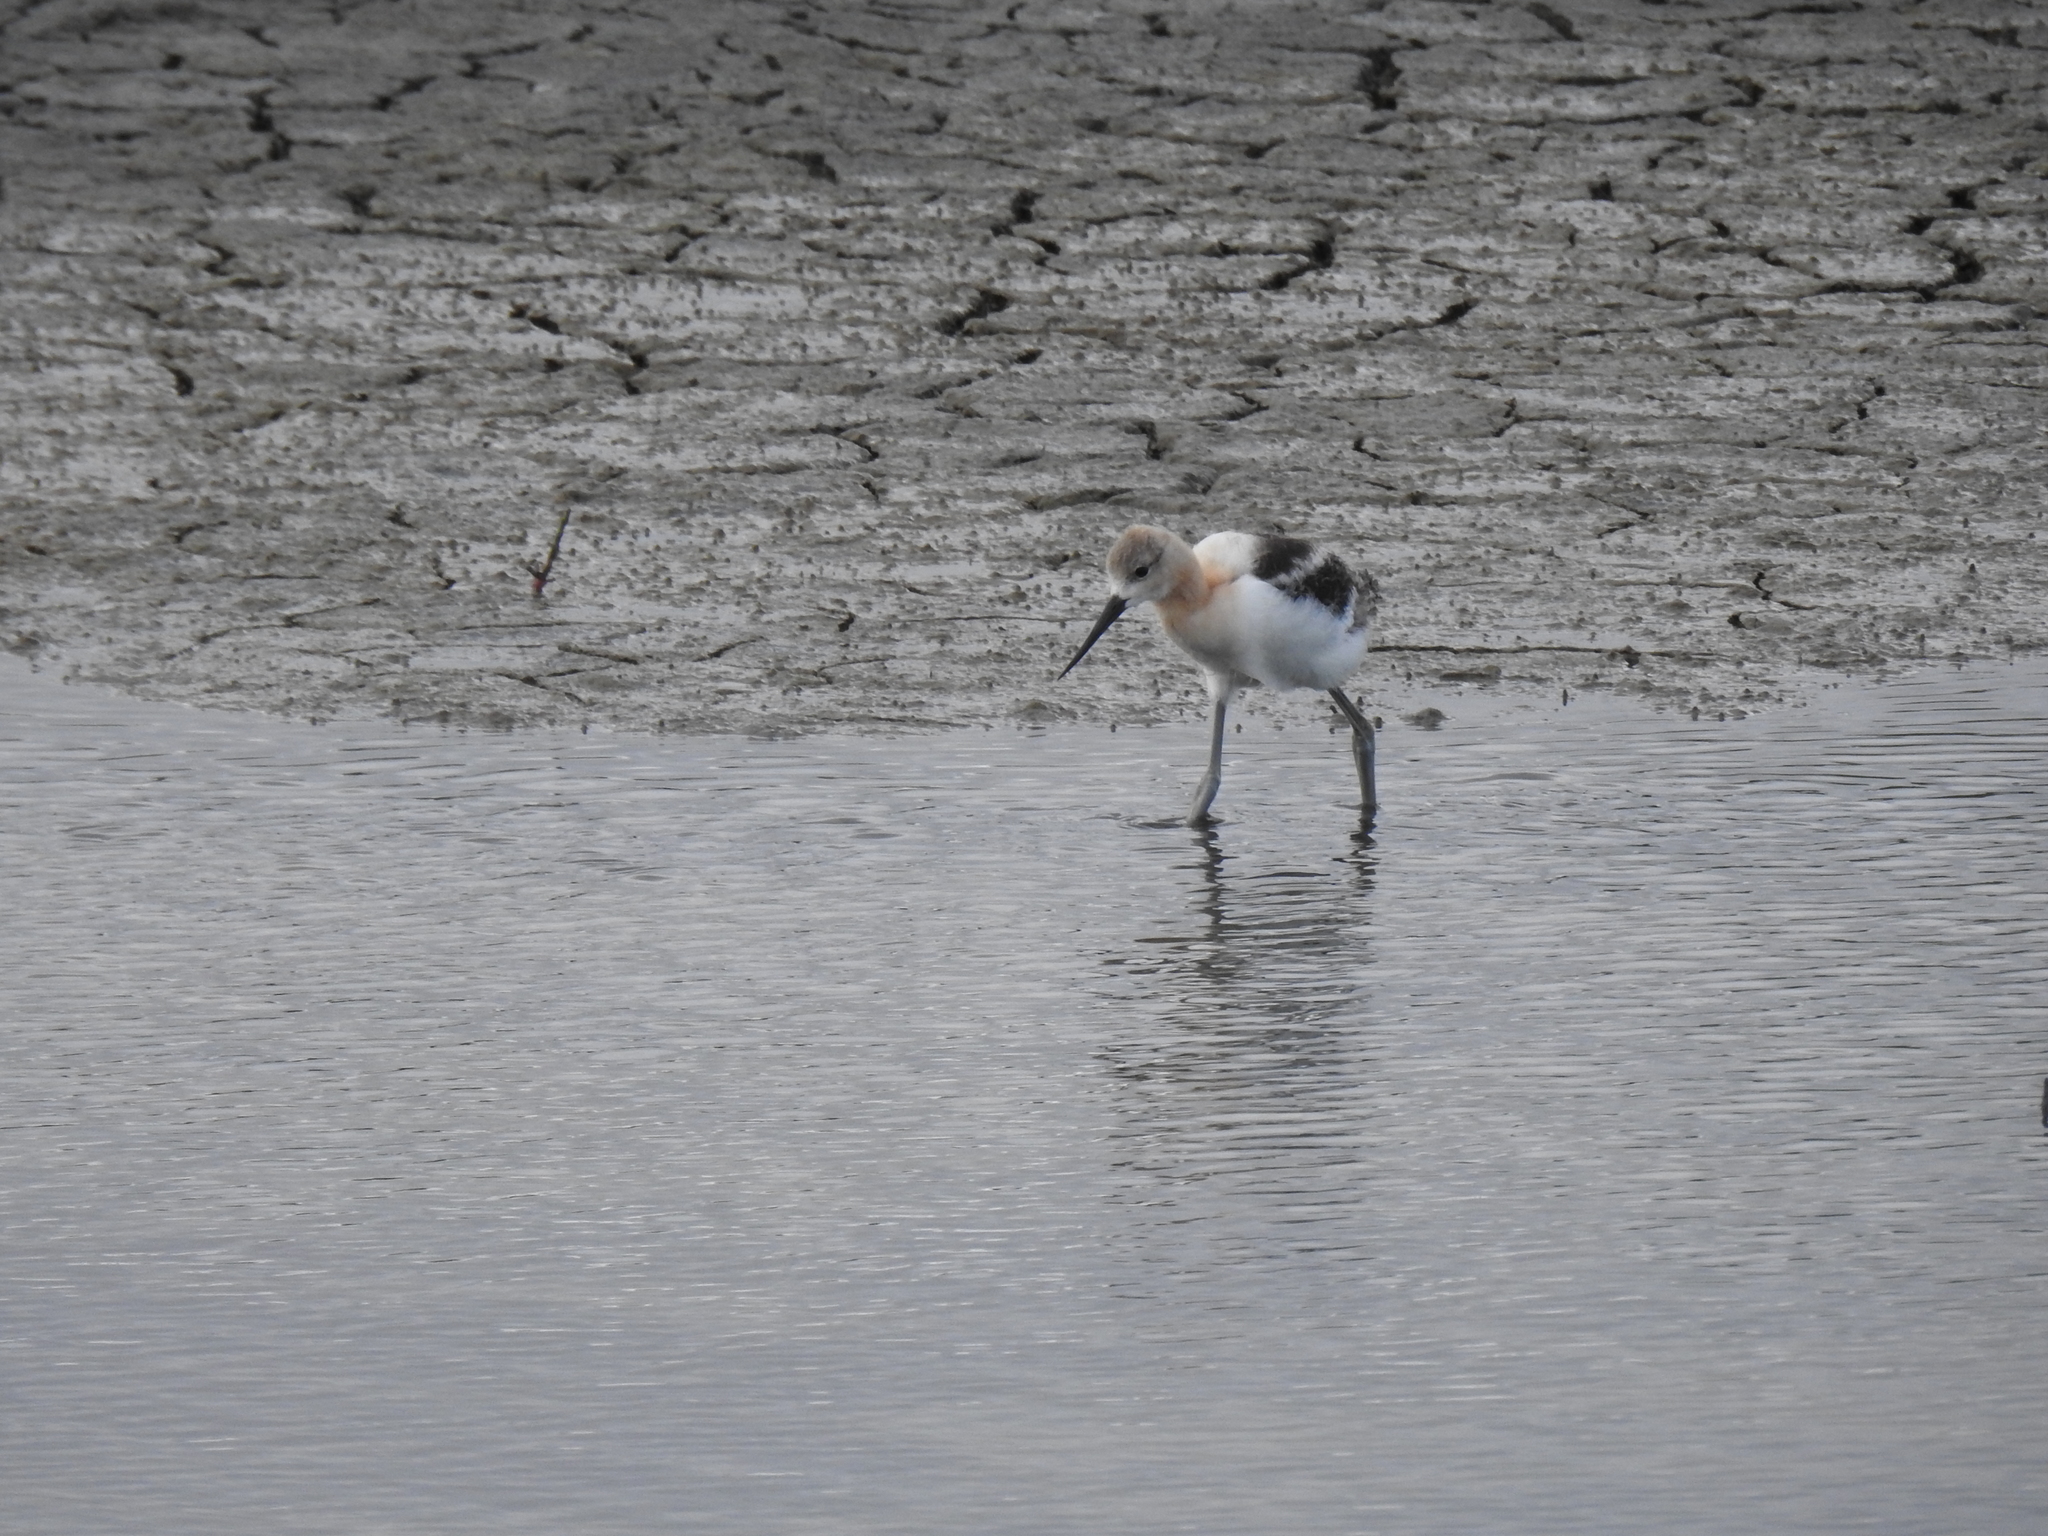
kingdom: Animalia
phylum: Chordata
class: Aves
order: Charadriiformes
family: Recurvirostridae
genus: Recurvirostra
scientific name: Recurvirostra americana
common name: American avocet
